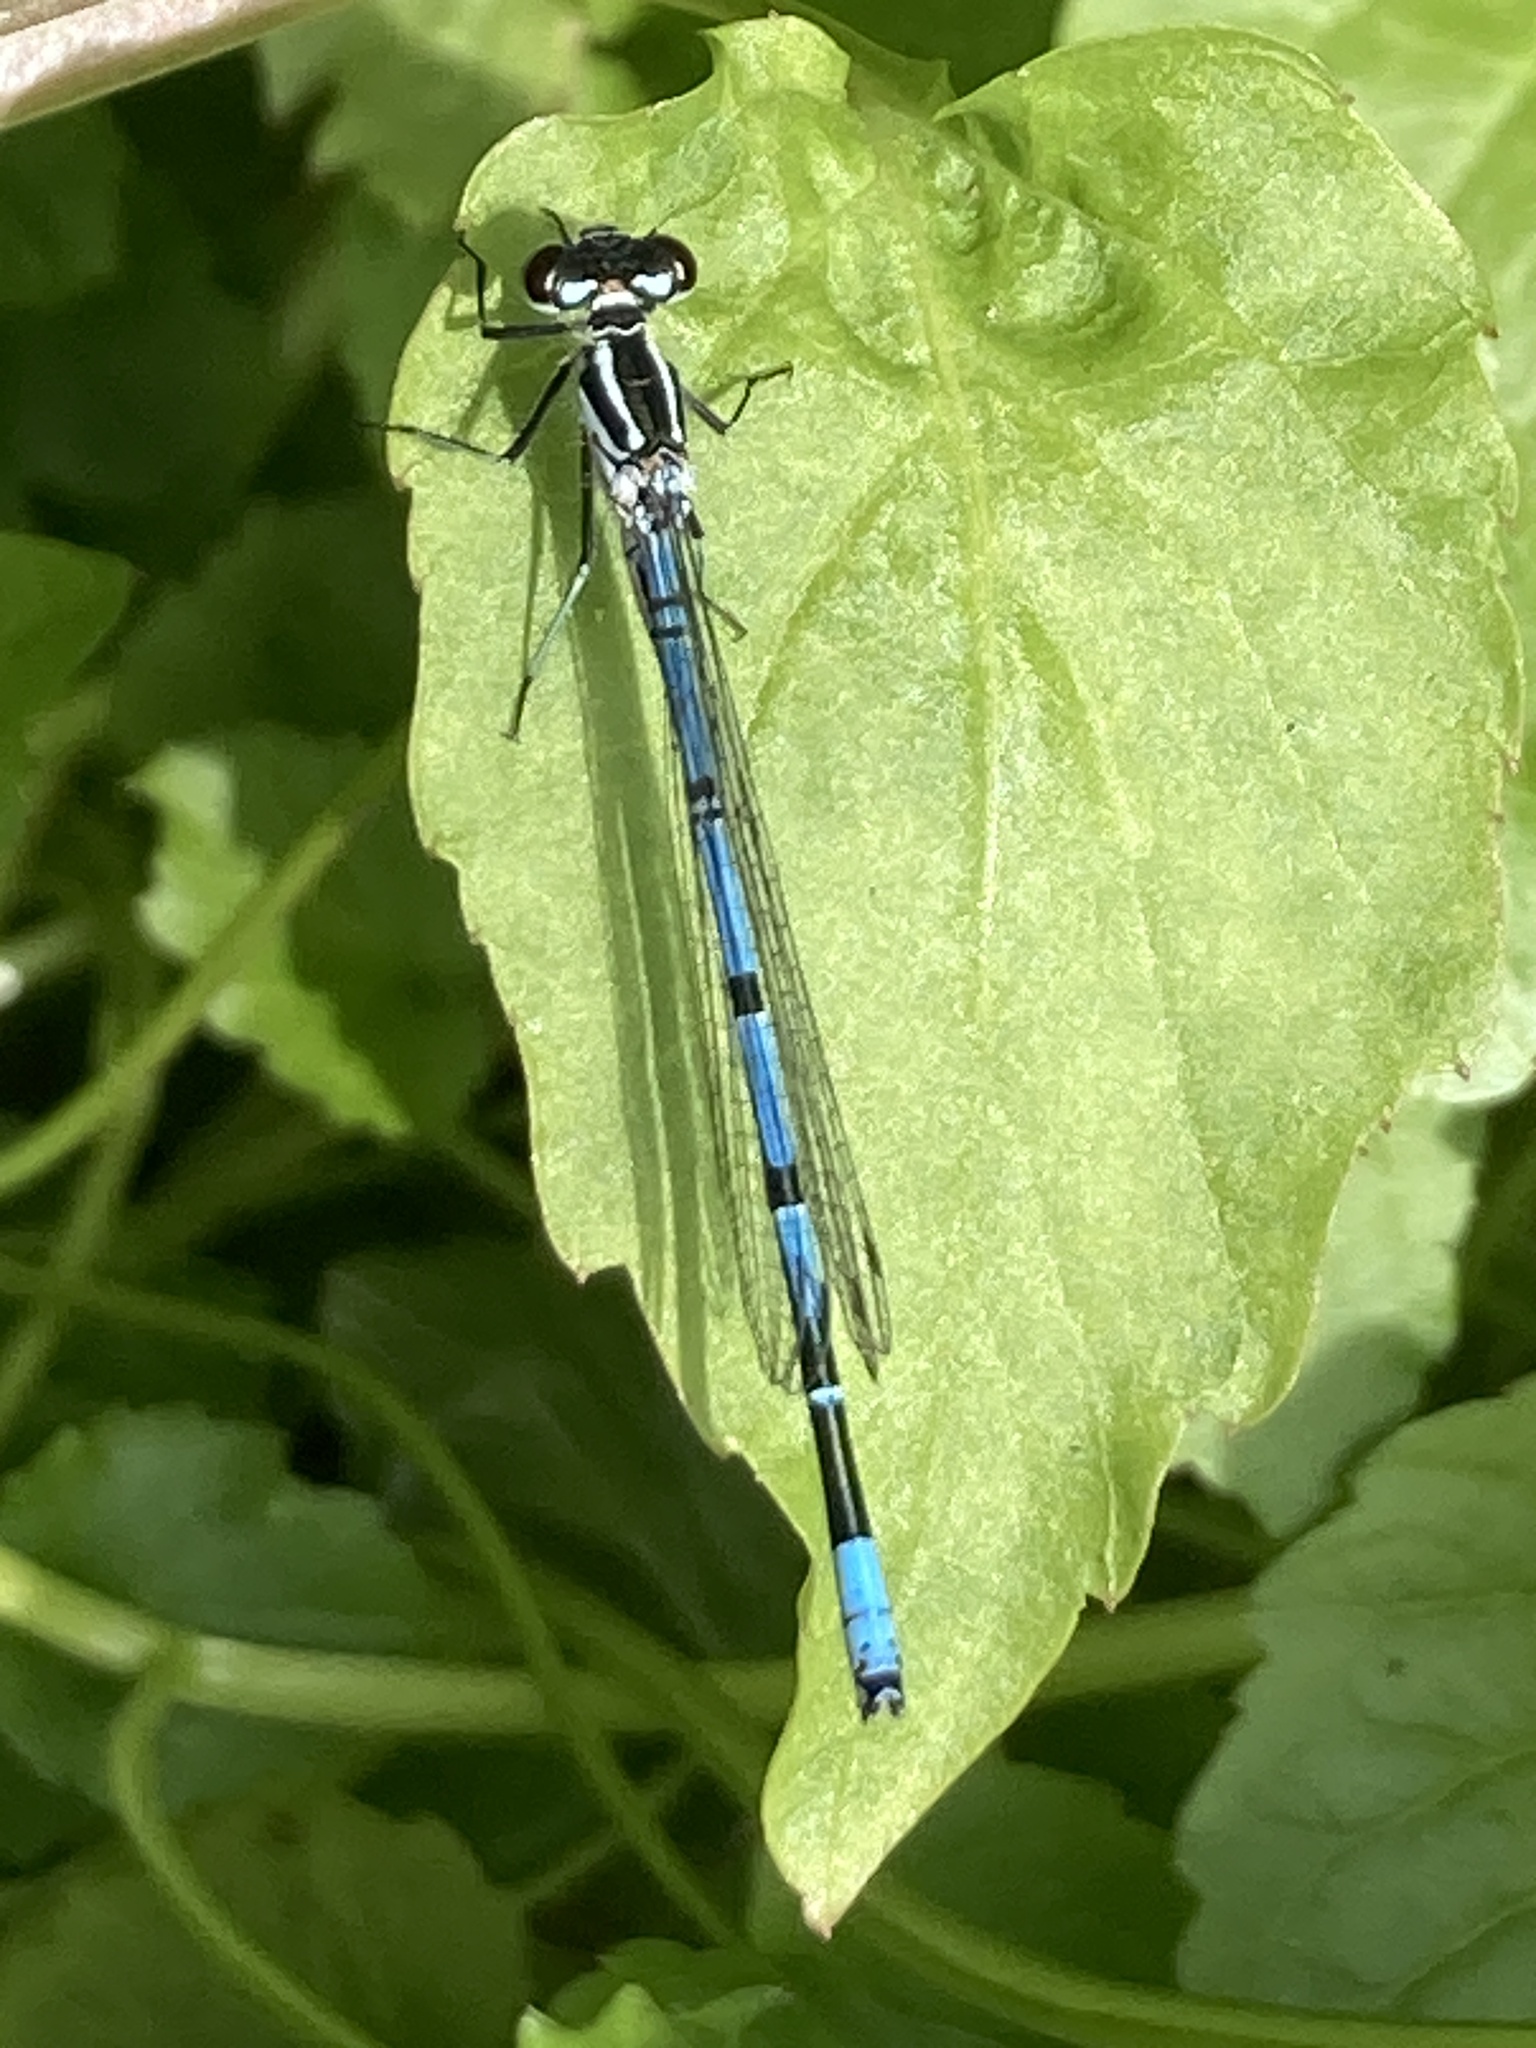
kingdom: Animalia
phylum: Arthropoda
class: Insecta
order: Odonata
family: Coenagrionidae
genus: Coenagrion
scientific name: Coenagrion puella
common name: Azure damselfly
